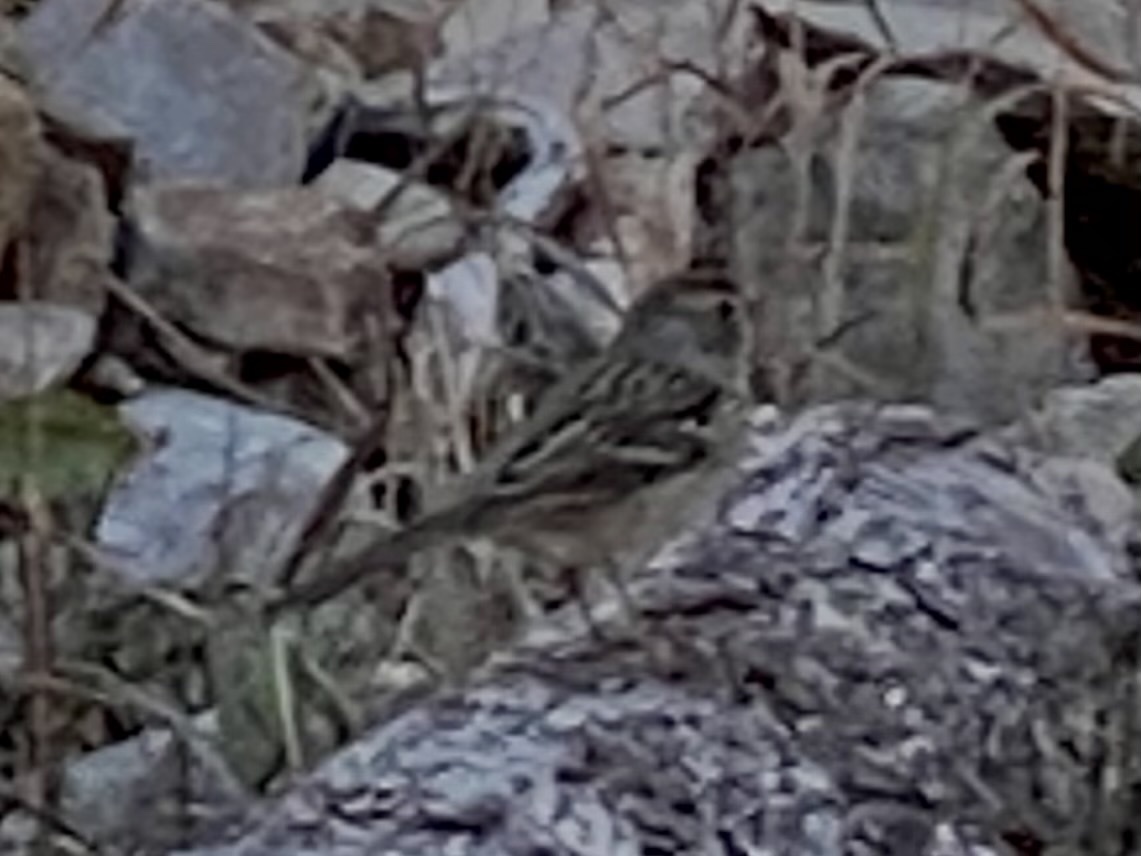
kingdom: Animalia
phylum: Chordata
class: Aves
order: Passeriformes
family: Passerellidae
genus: Zonotrichia
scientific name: Zonotrichia leucophrys
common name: White-crowned sparrow
